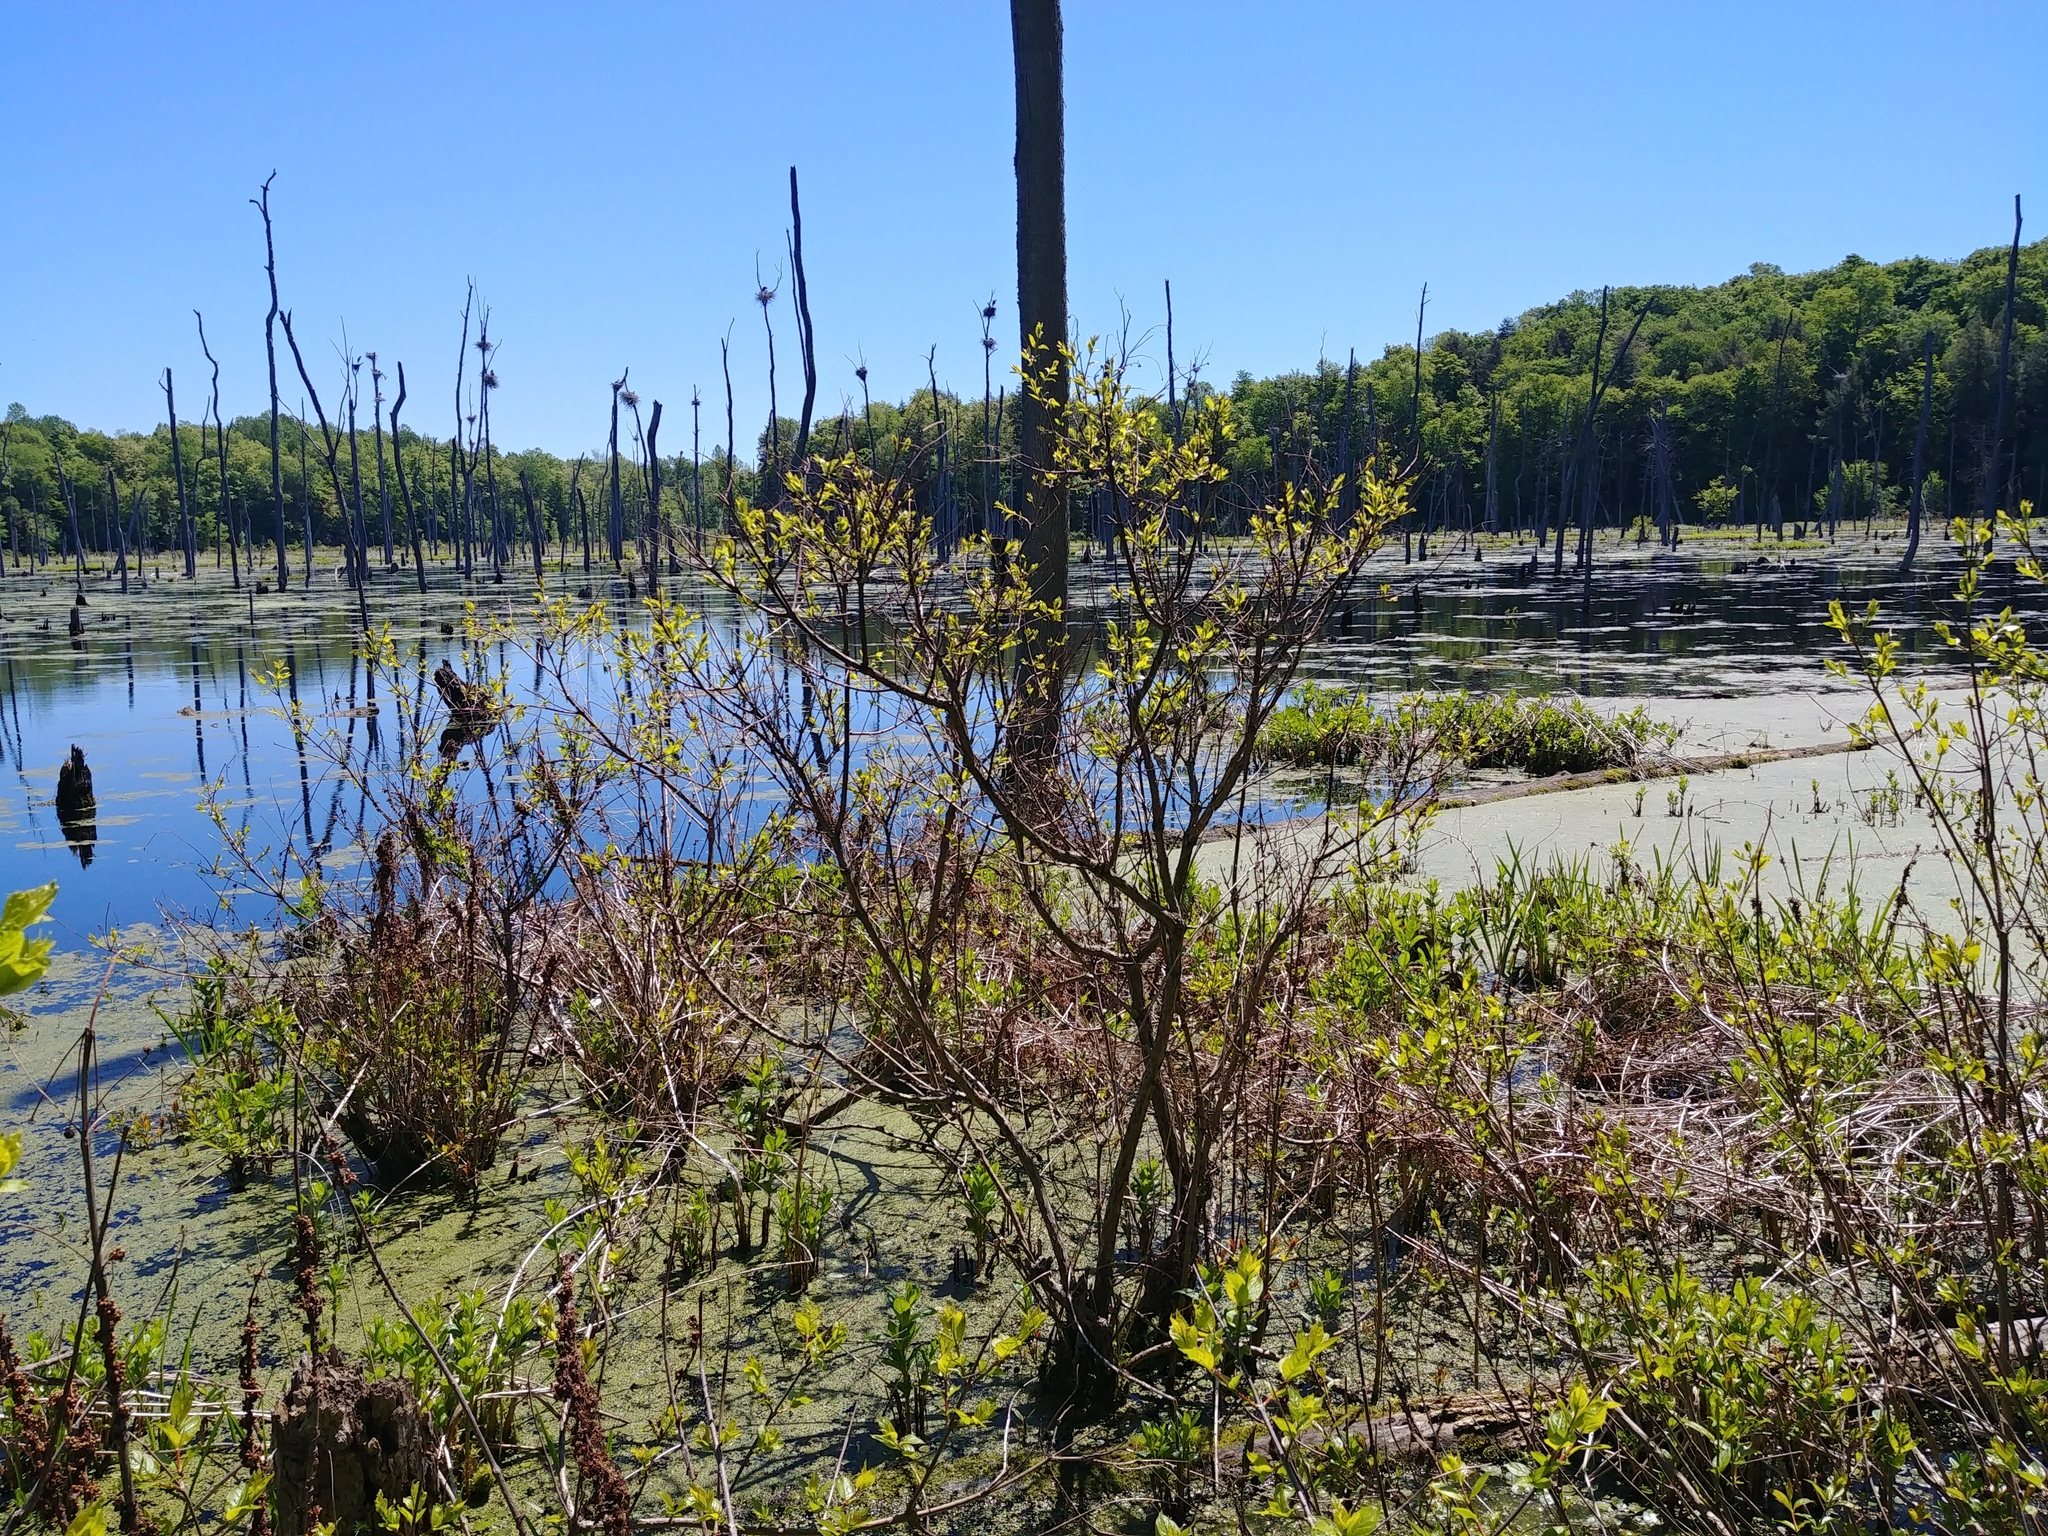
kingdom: Plantae
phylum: Tracheophyta
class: Liliopsida
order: Alismatales
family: Hydrocharitaceae
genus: Hydrocharis
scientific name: Hydrocharis morsus-ranae
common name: Frogbit
